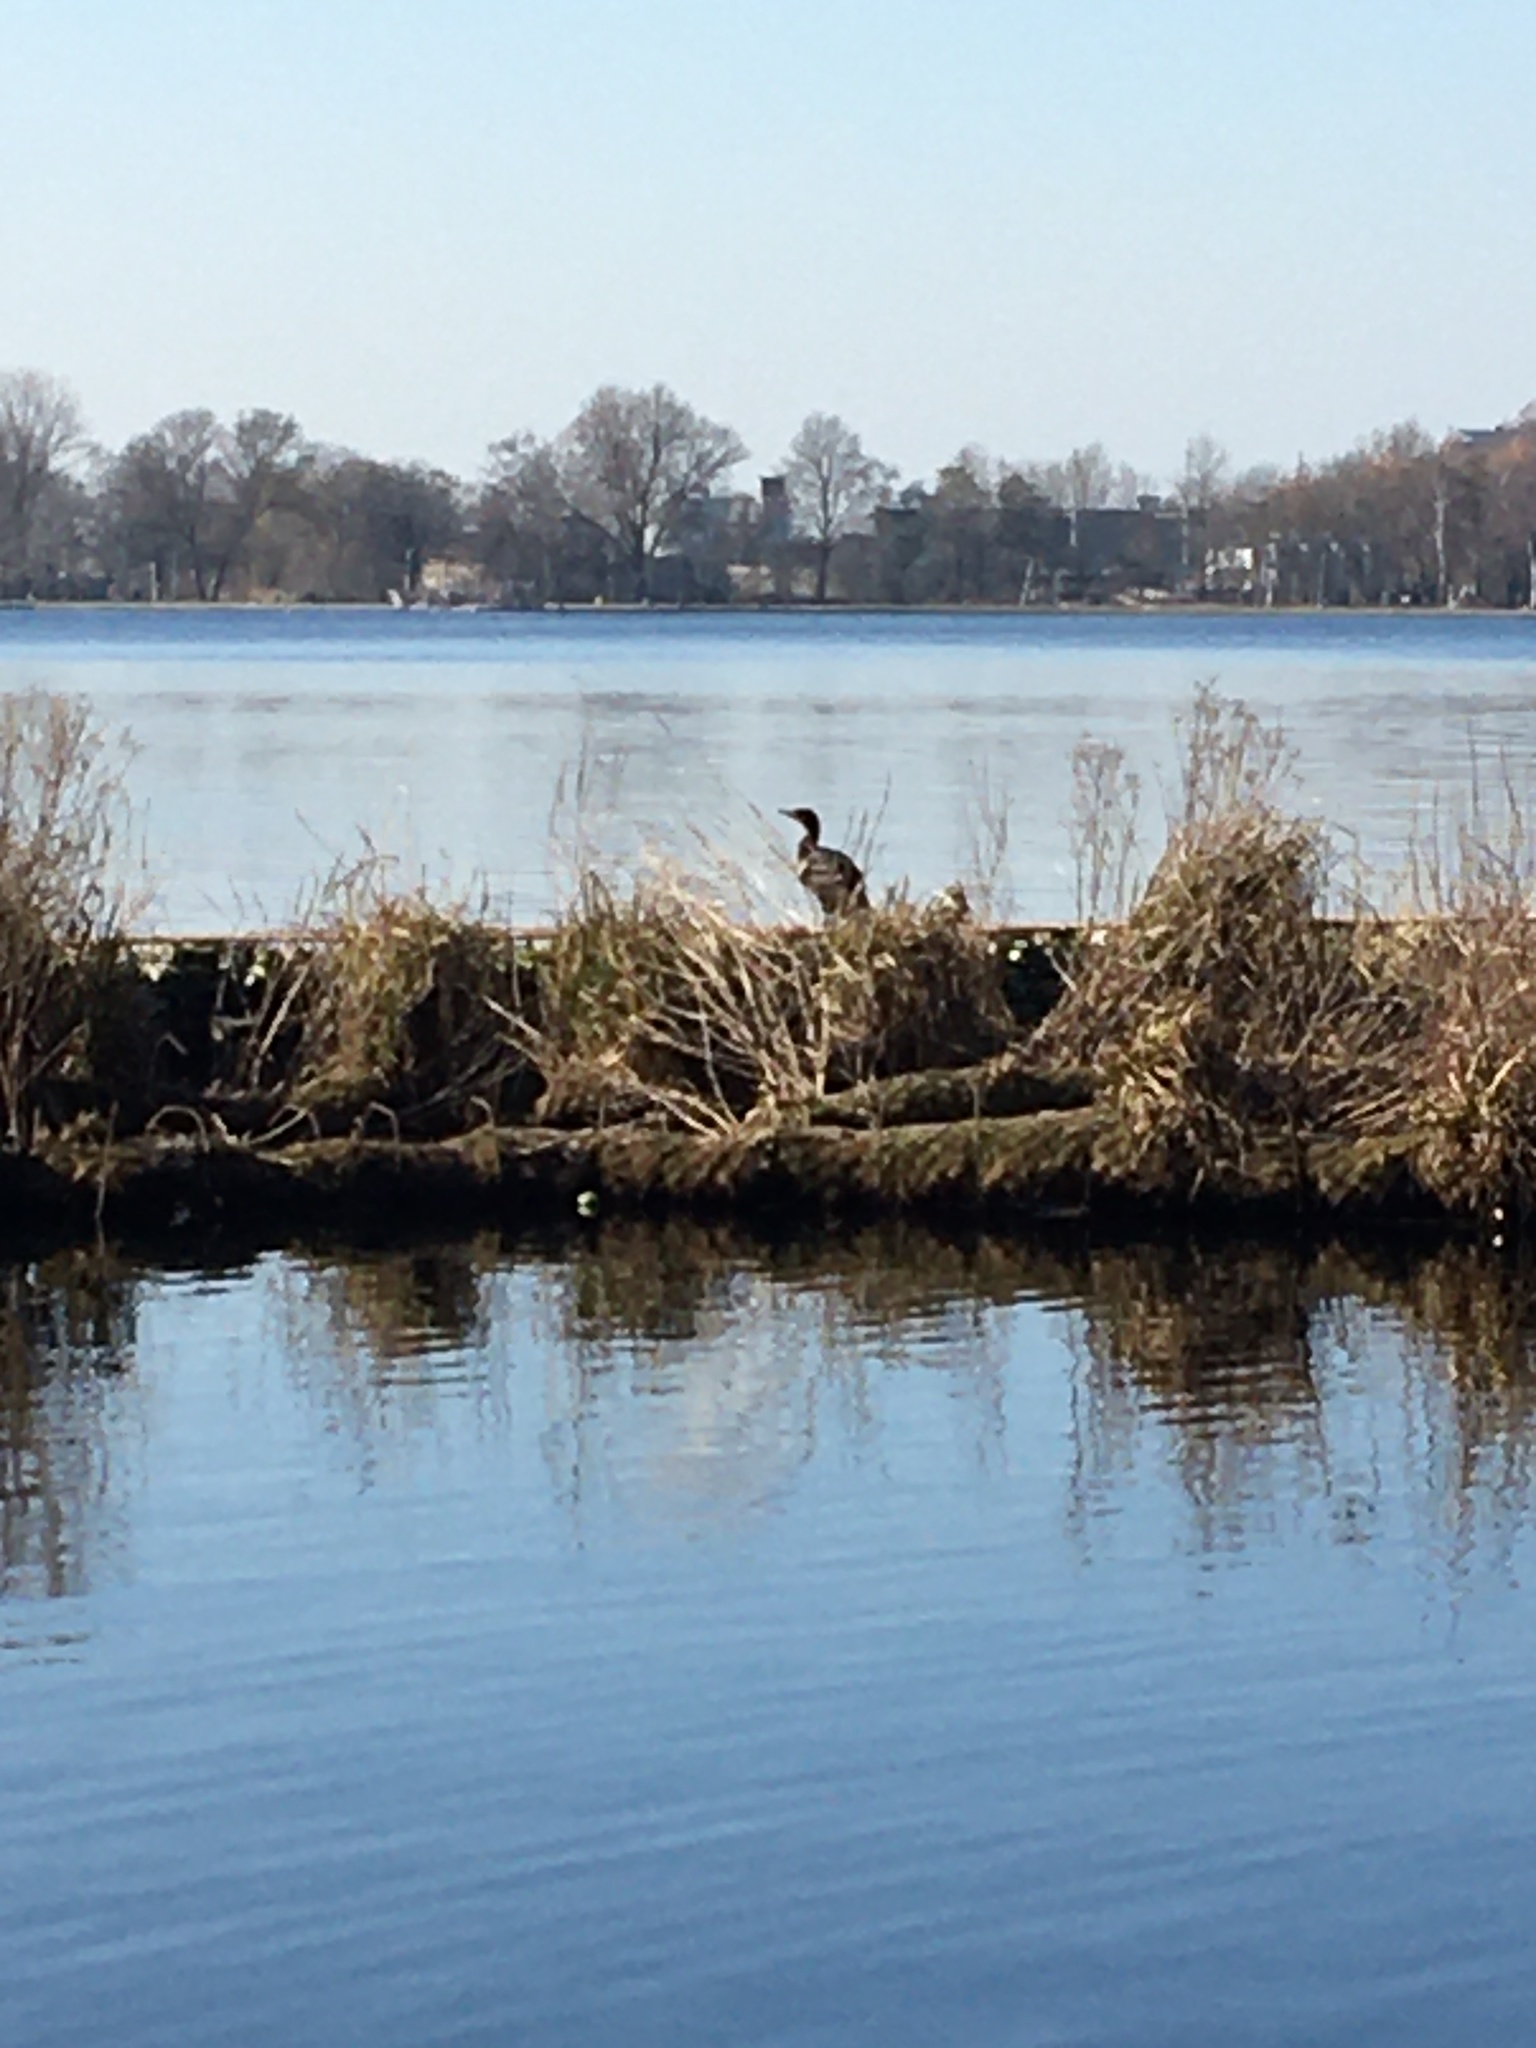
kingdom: Animalia
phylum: Chordata
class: Aves
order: Suliformes
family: Phalacrocoracidae
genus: Phalacrocorax
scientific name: Phalacrocorax carbo
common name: Great cormorant
